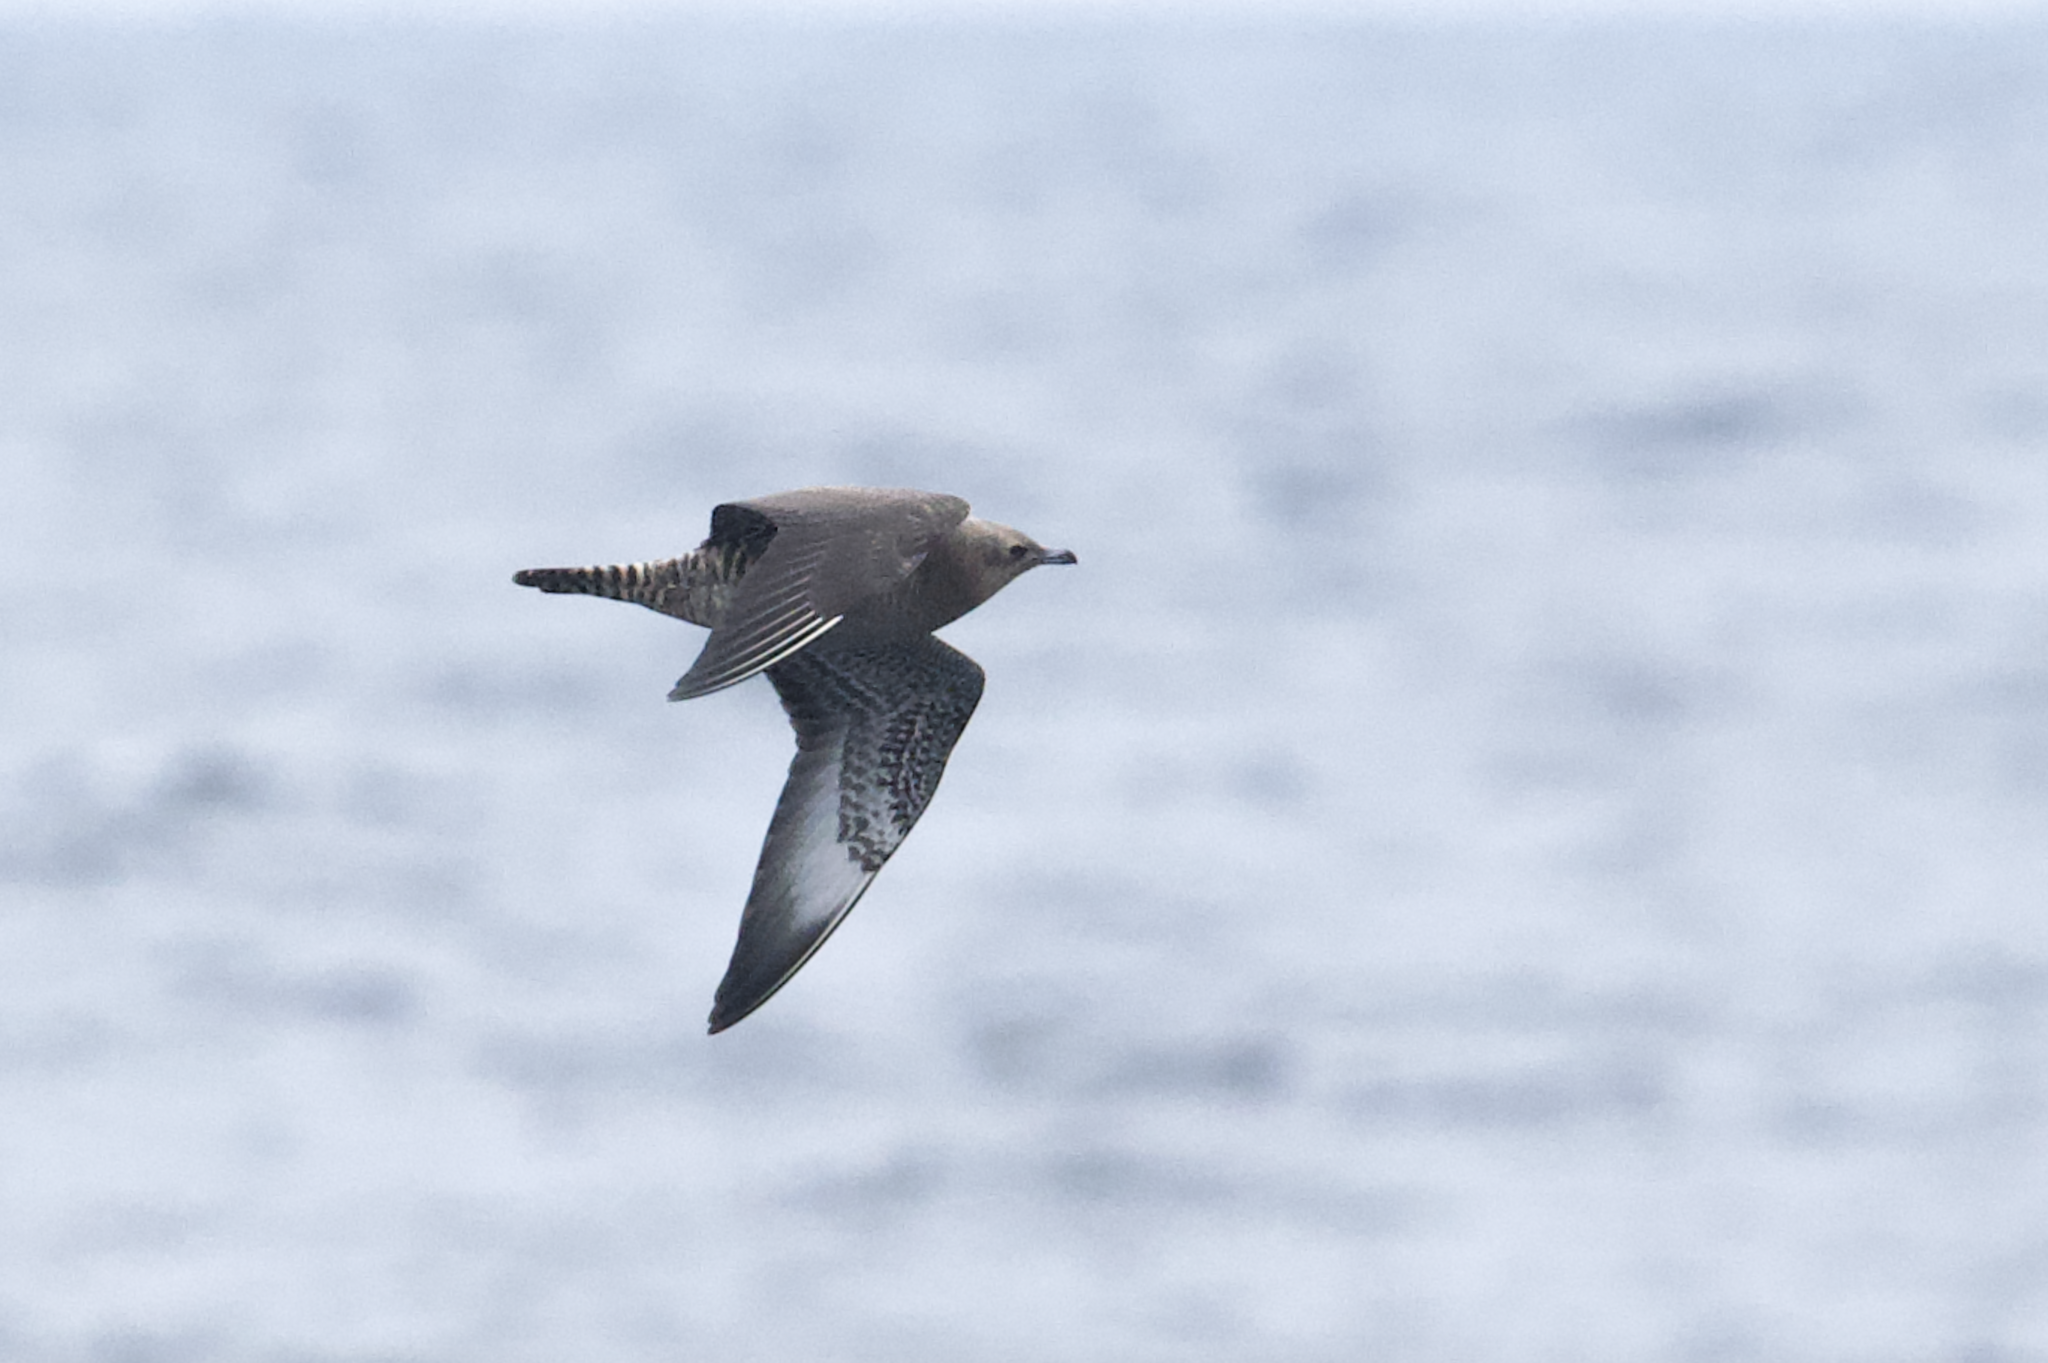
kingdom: Animalia
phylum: Chordata
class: Aves
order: Charadriiformes
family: Stercorariidae
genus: Stercorarius
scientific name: Stercorarius pomarinus
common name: Pomarine jaeger
